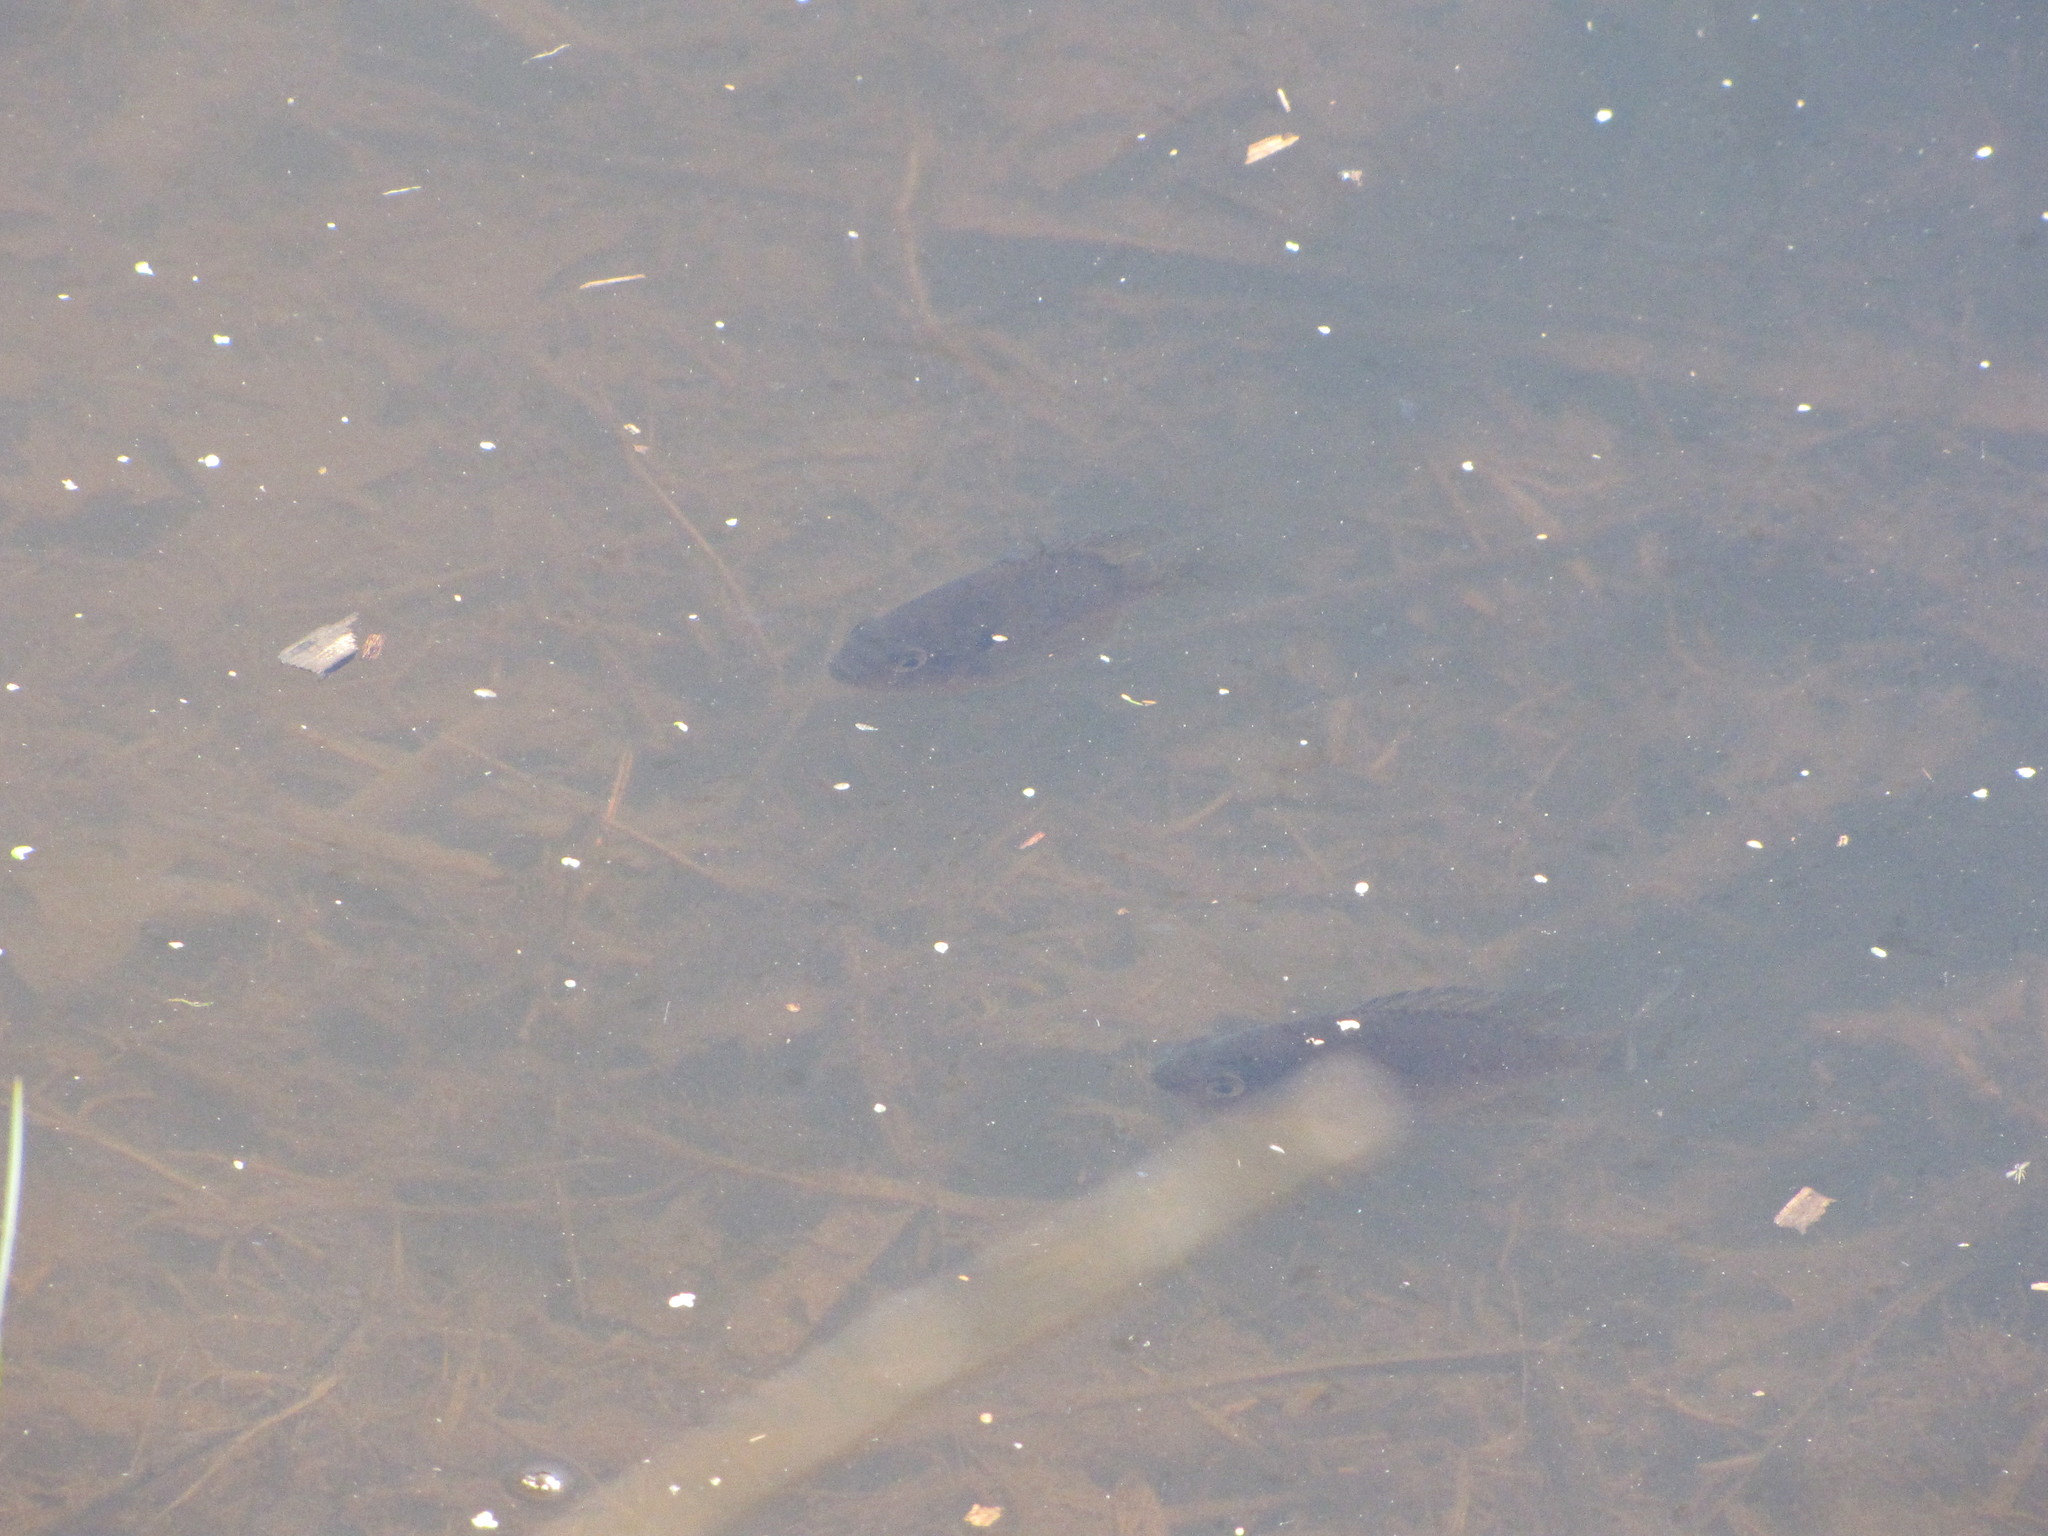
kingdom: Animalia
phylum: Chordata
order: Perciformes
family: Centrarchidae
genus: Lepomis
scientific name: Lepomis gibbosus
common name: Pumpkinseed
